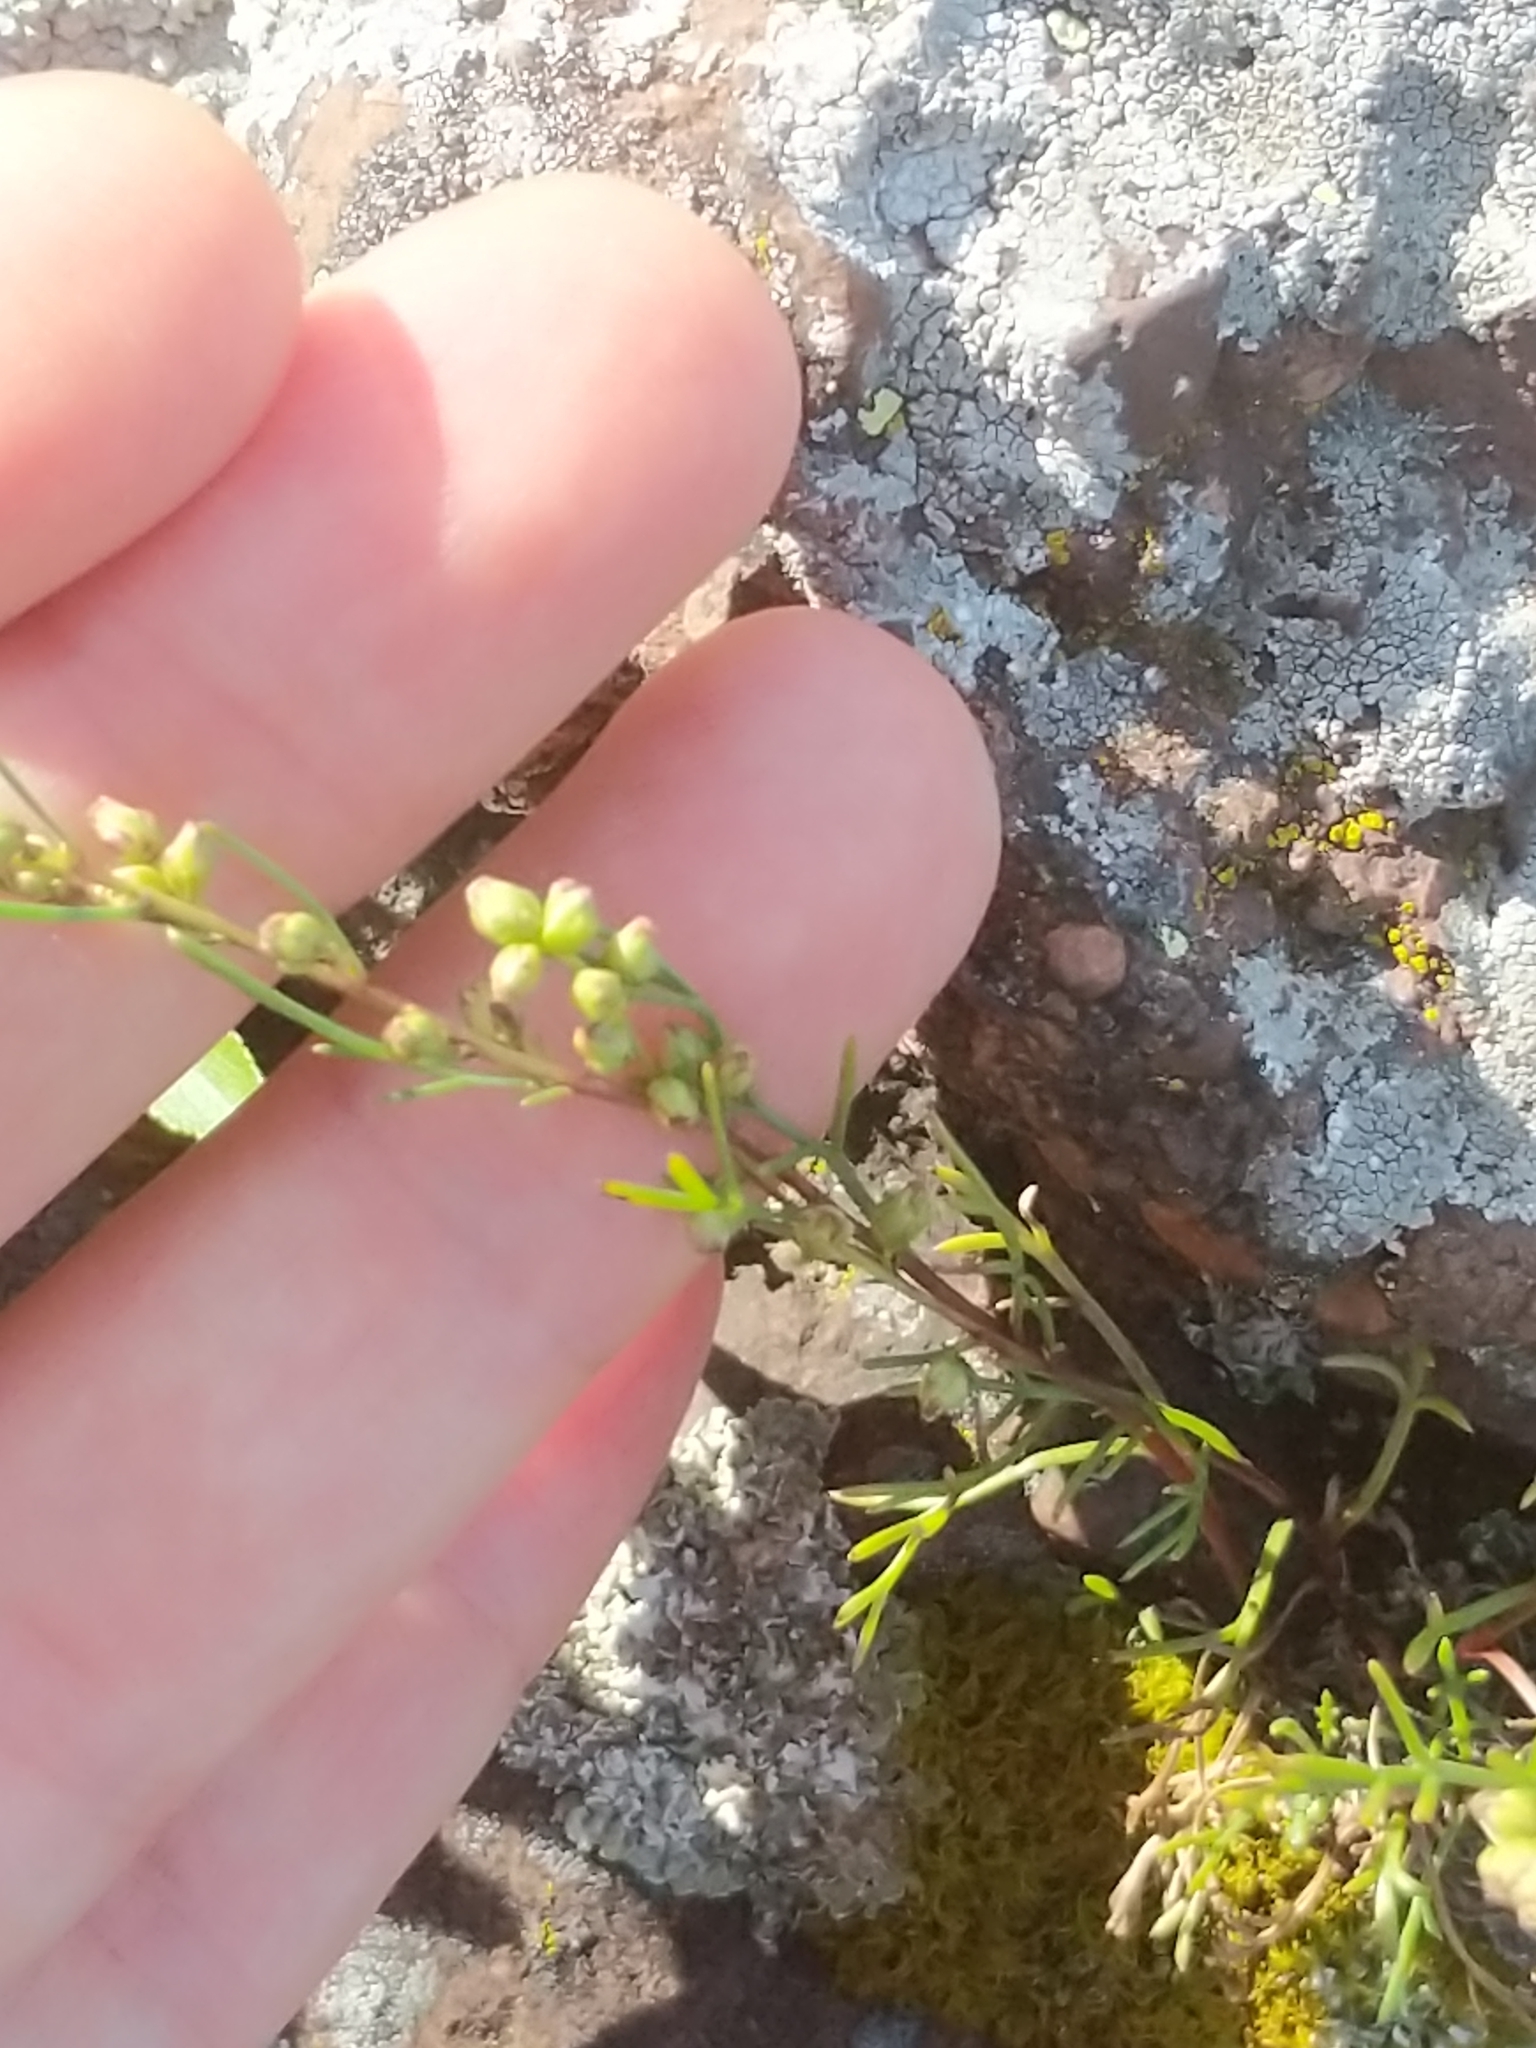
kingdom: Plantae
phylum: Tracheophyta
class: Magnoliopsida
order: Asterales
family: Asteraceae
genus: Artemisia
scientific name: Artemisia campestris
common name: Field wormwood
